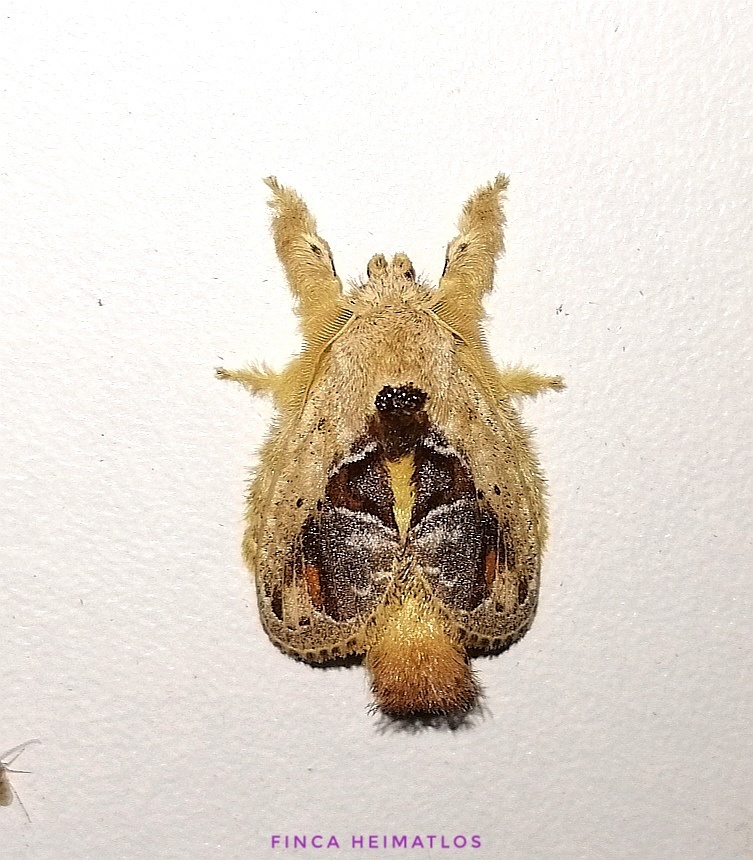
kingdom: Animalia
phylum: Arthropoda
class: Insecta
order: Lepidoptera
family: Lasiocampidae
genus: Nesara
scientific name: Nesara
